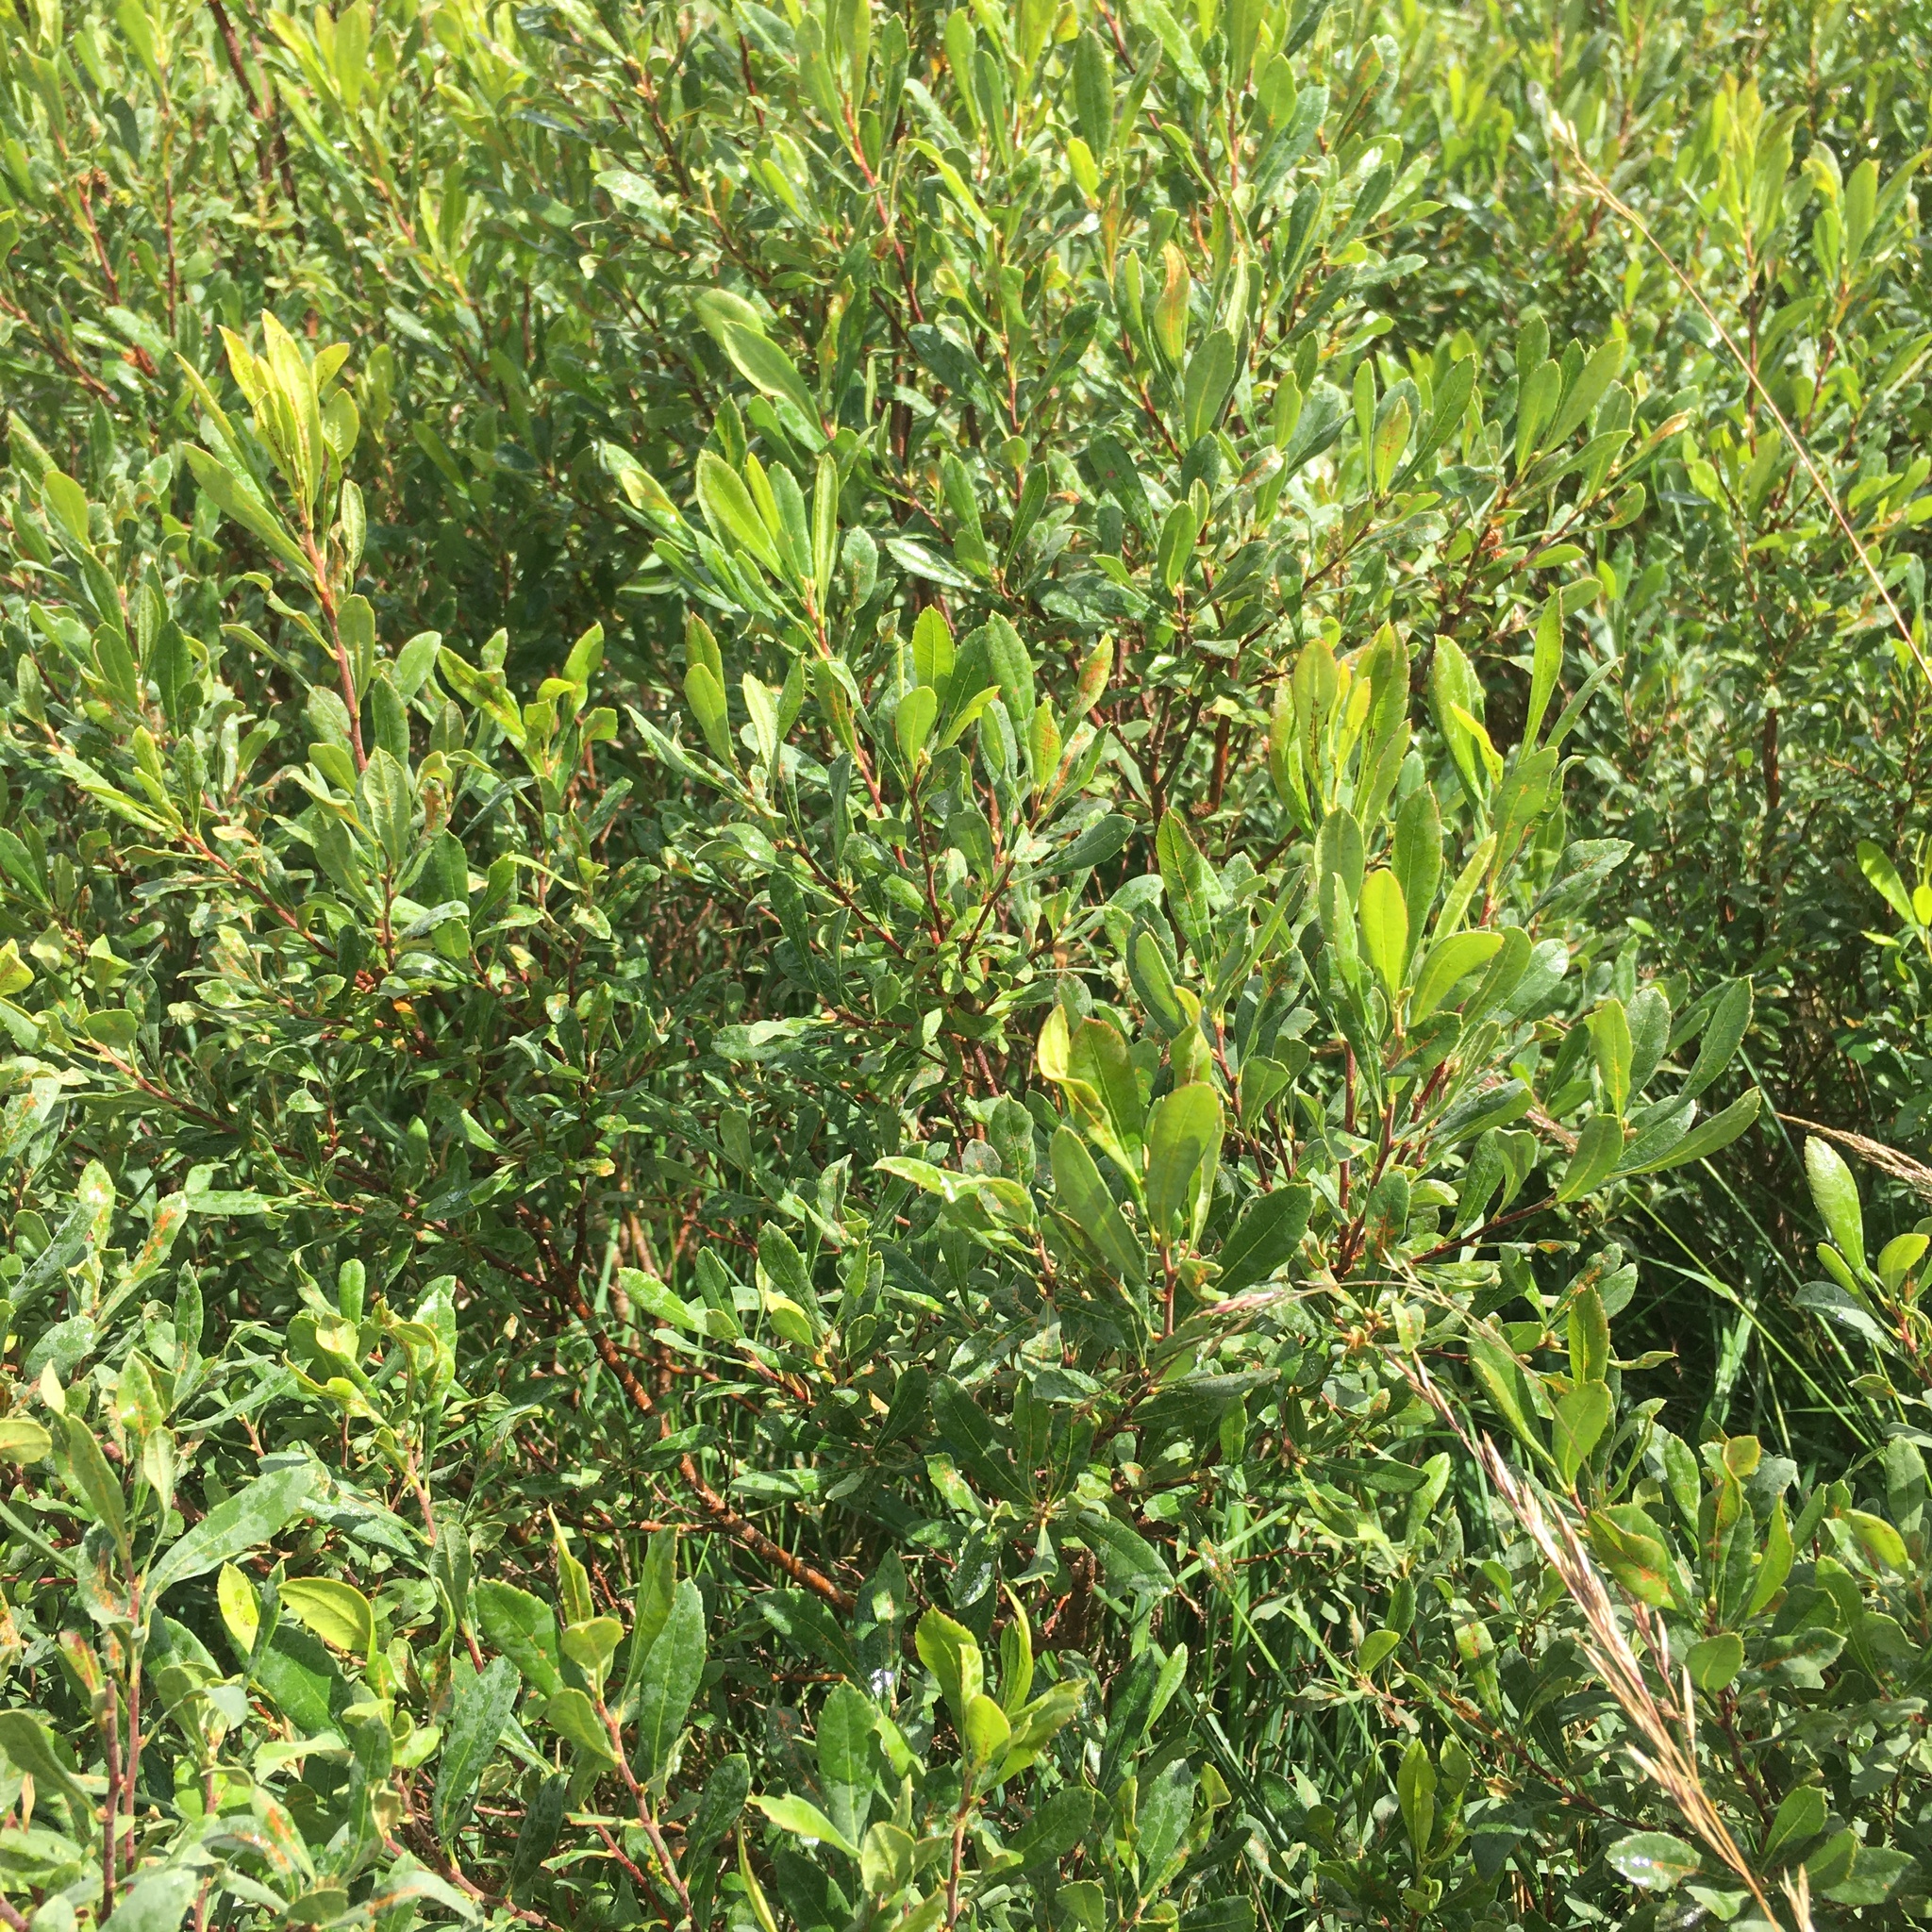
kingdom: Plantae
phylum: Tracheophyta
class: Magnoliopsida
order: Fagales
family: Myricaceae
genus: Myrica
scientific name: Myrica gale
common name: Sweet gale
